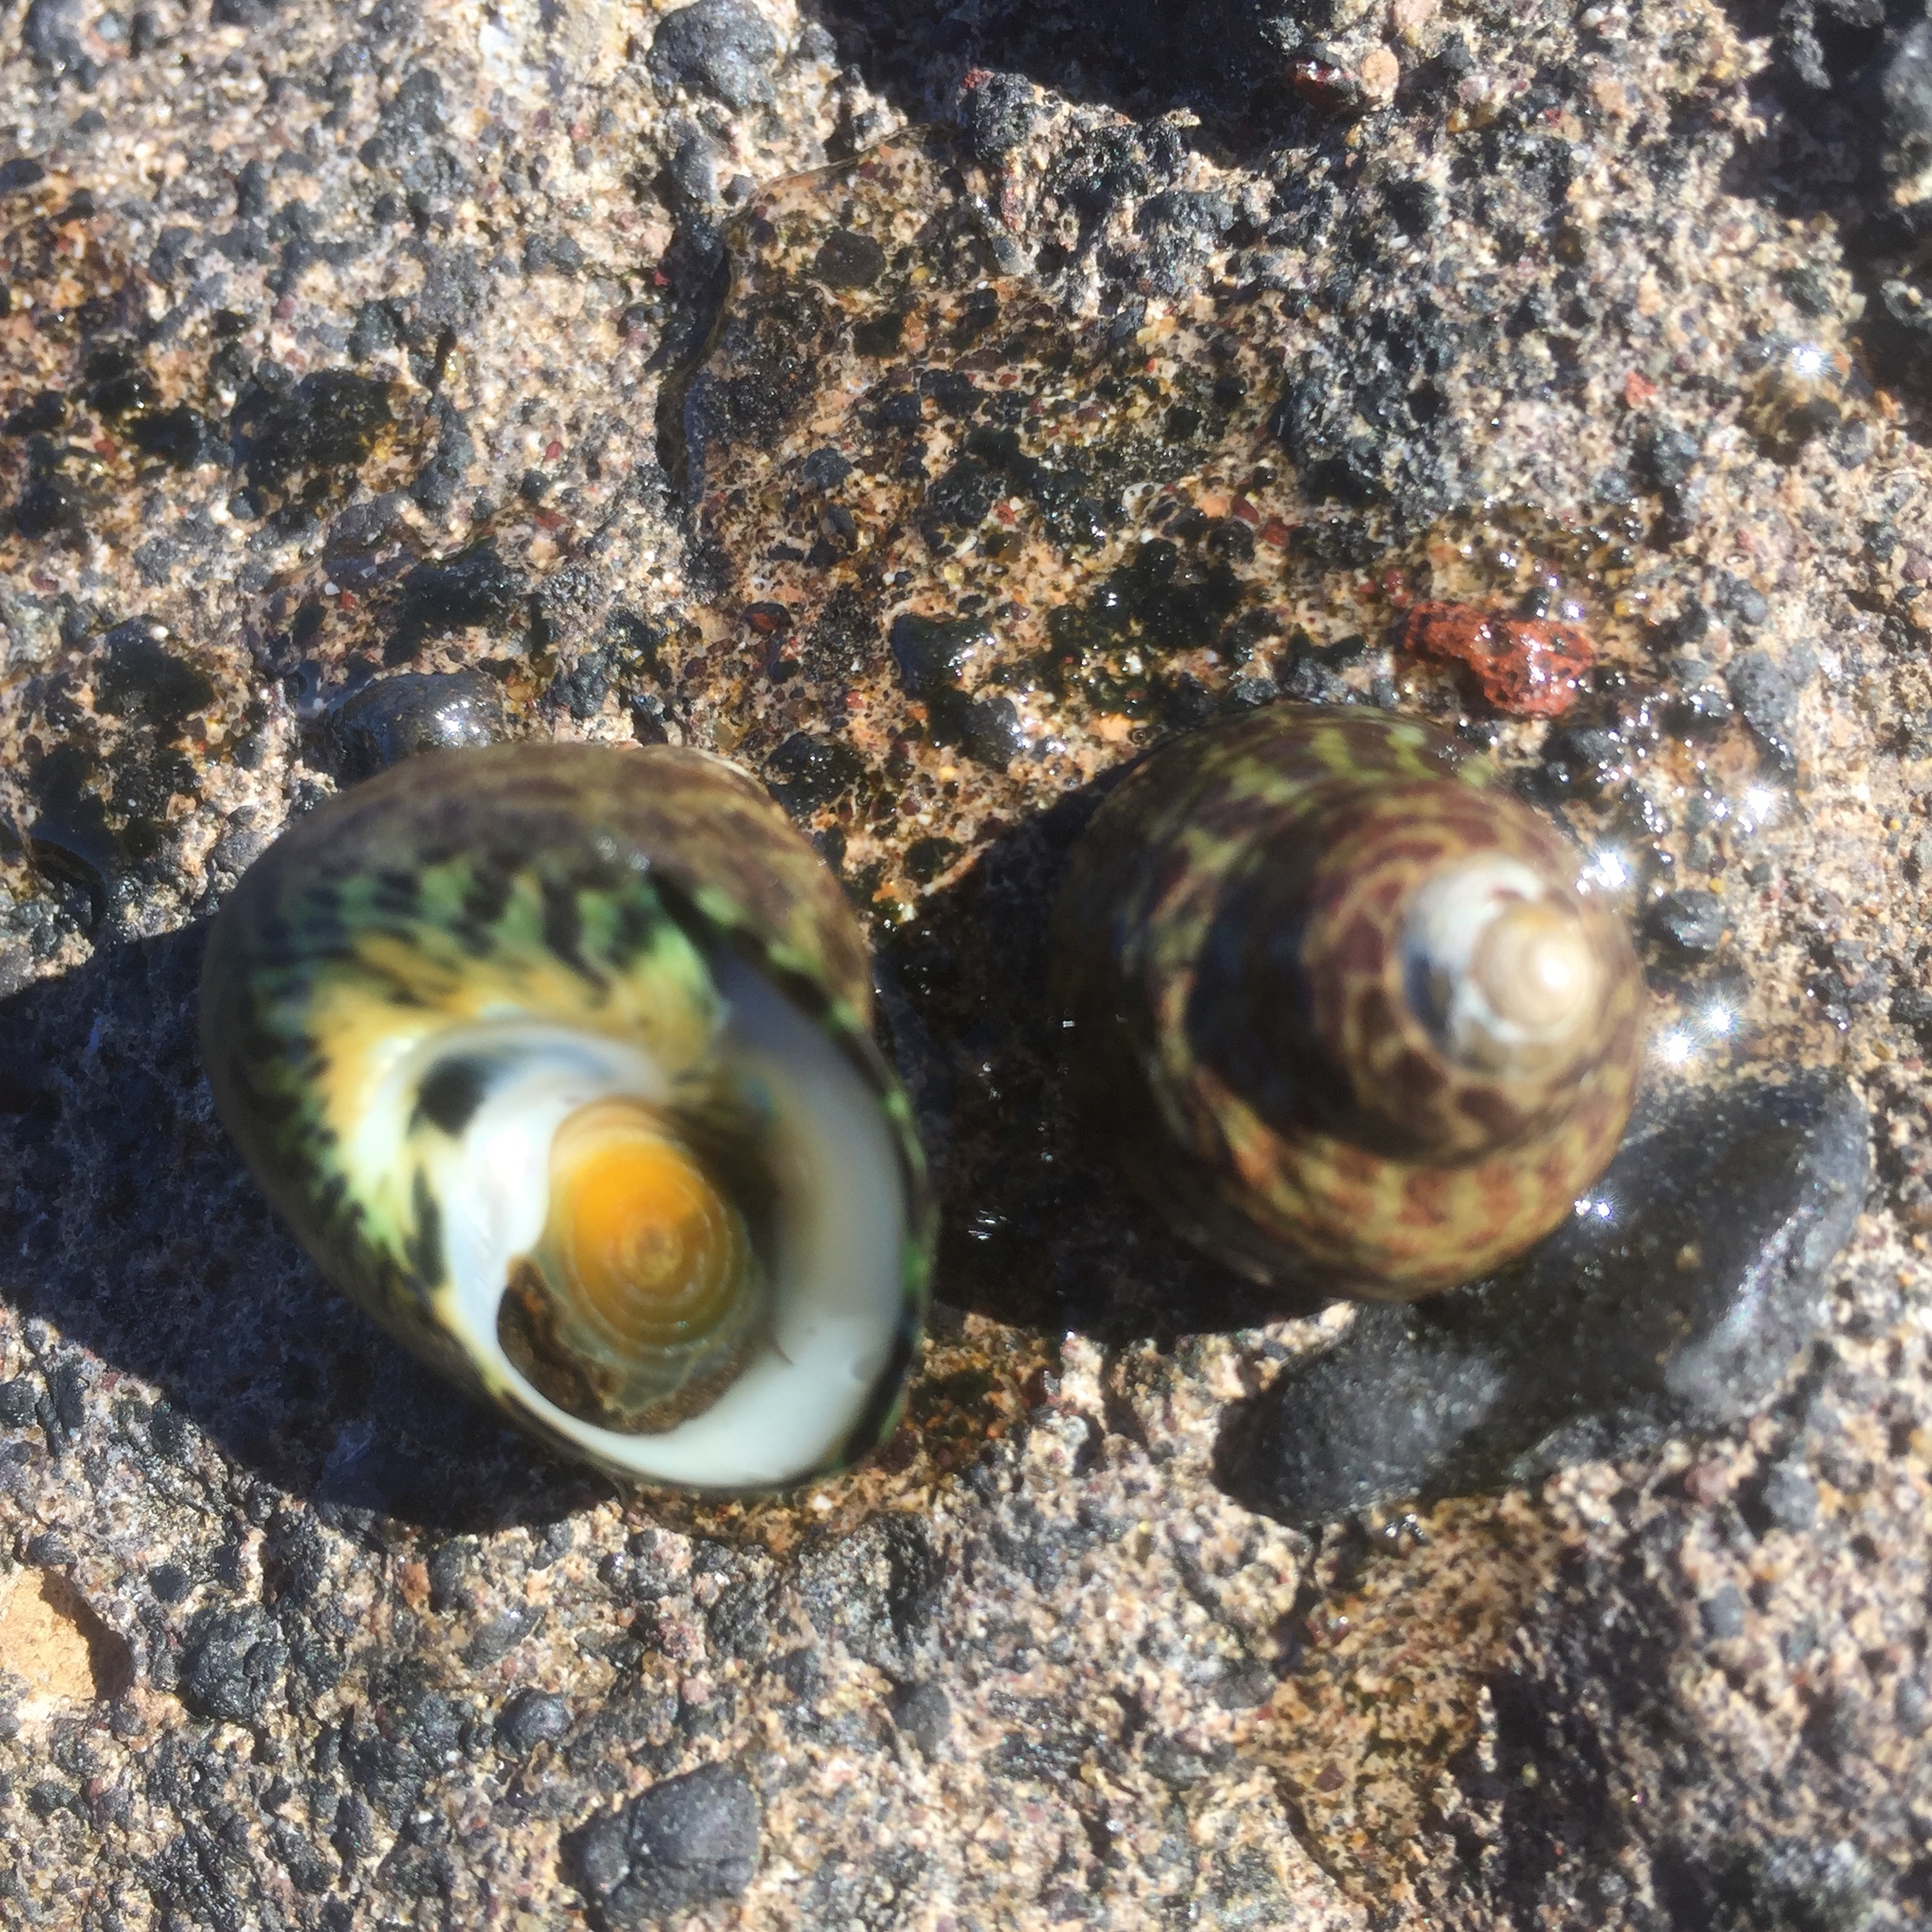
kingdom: Animalia
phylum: Mollusca
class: Gastropoda
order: Trochida
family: Trochidae
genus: Phorcus
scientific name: Phorcus sauciatus
